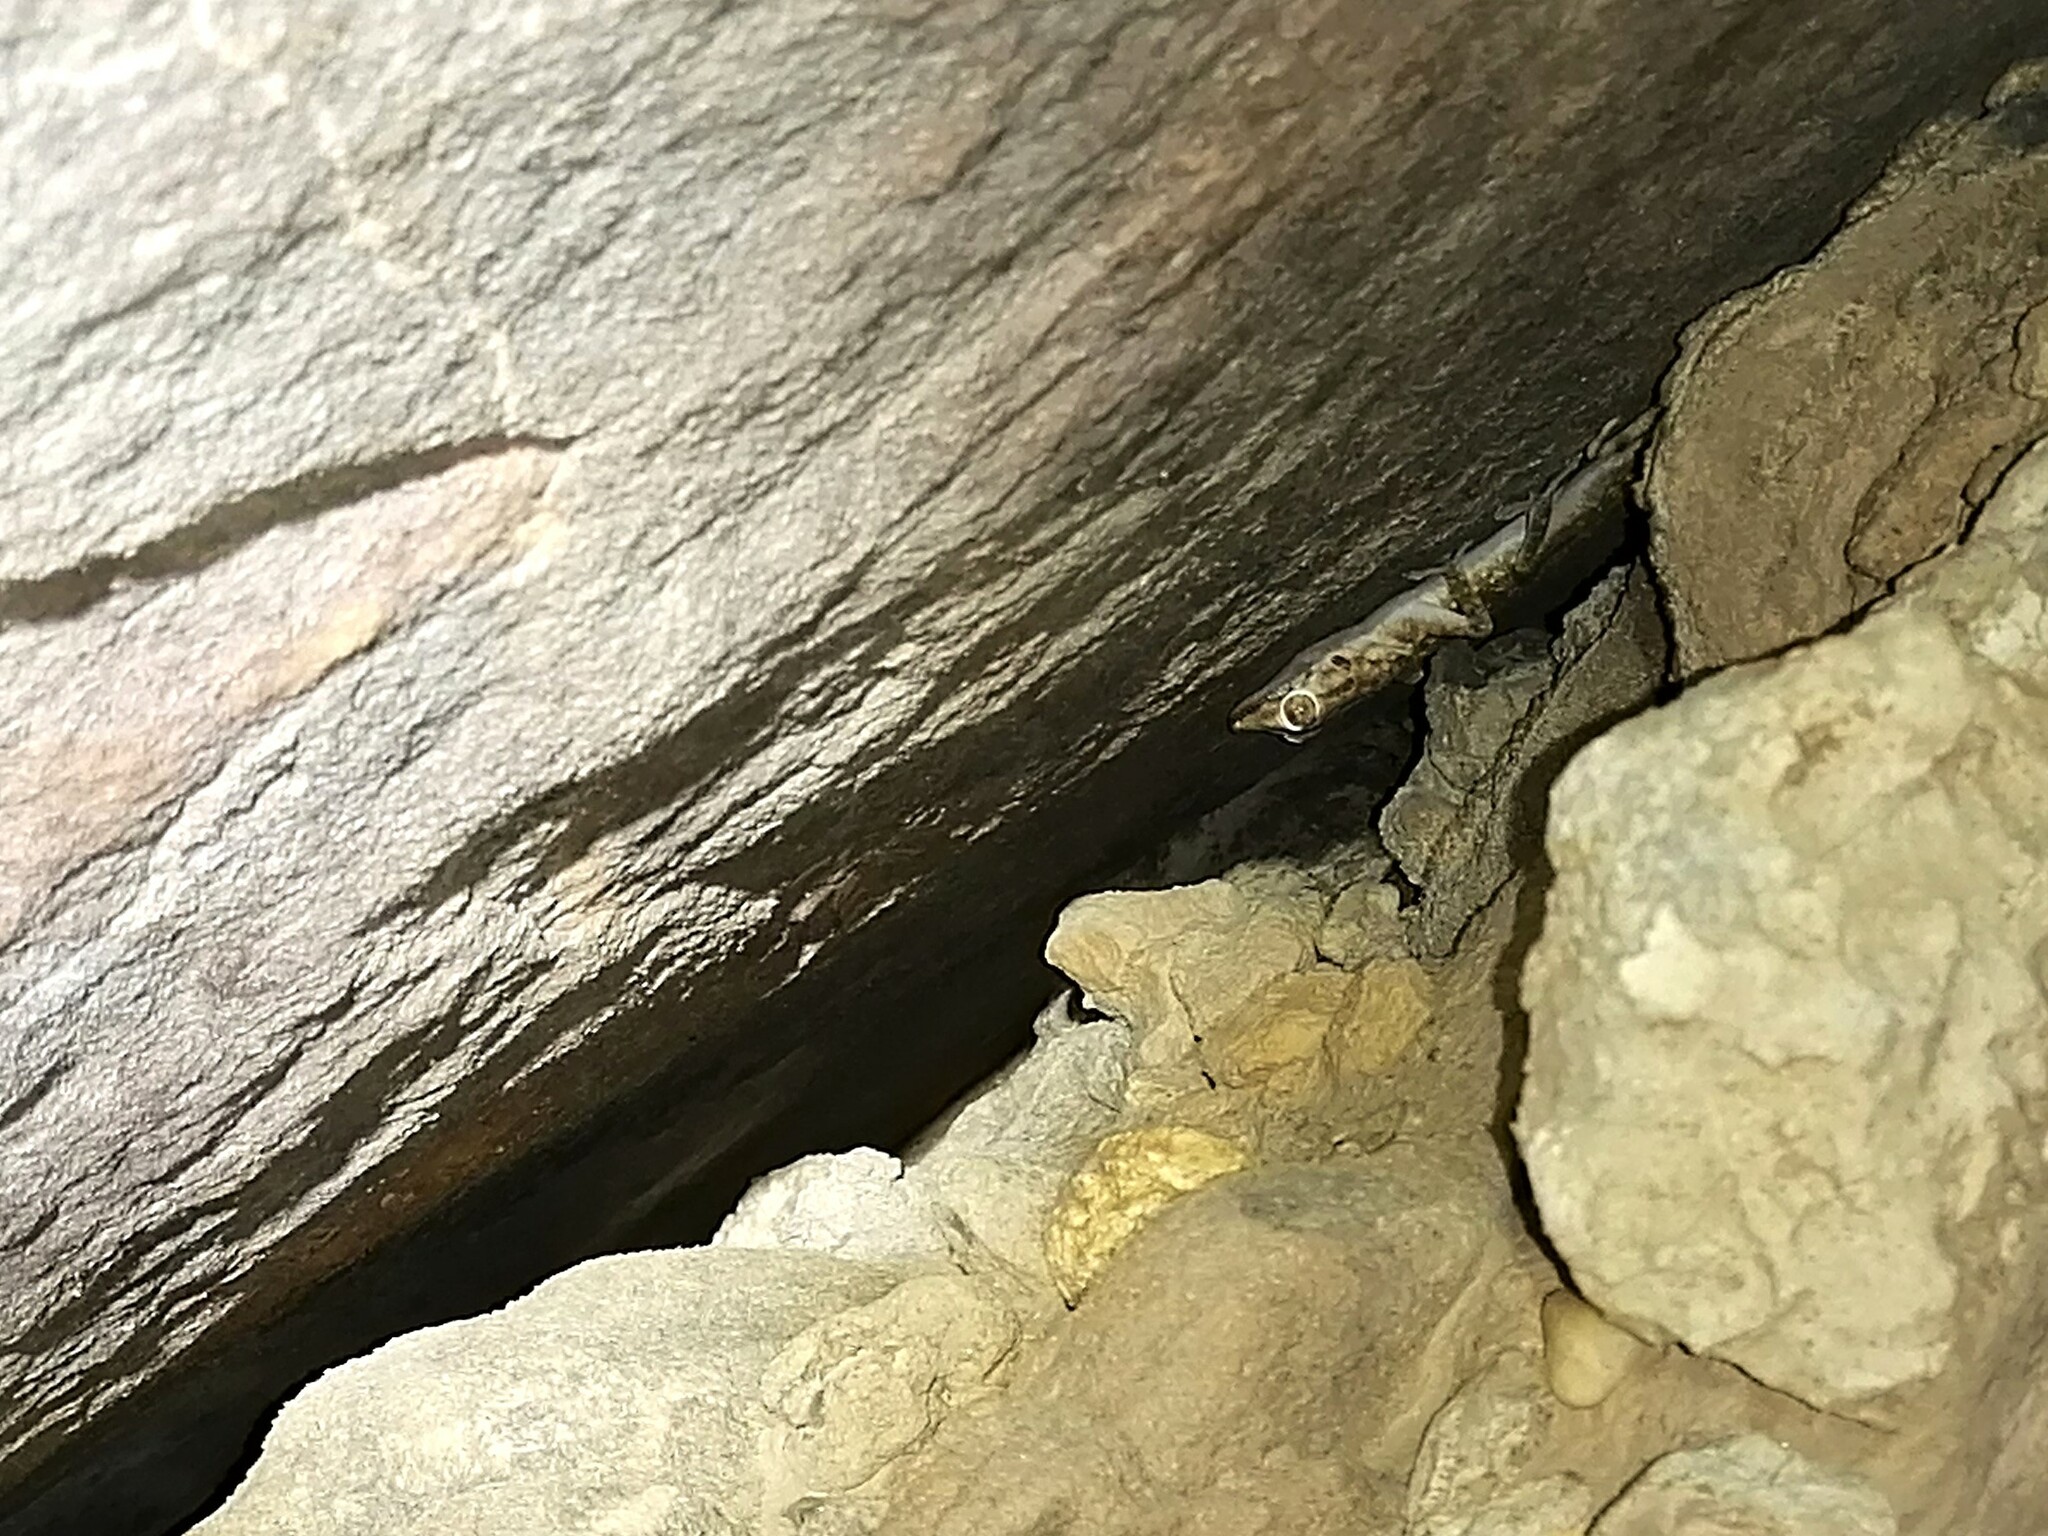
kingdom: Animalia
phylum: Chordata
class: Squamata
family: Phyllodactylidae
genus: Ptyodactylus
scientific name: Ptyodactylus hasselquistii
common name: Hasselquist’s fan-footed gecko
